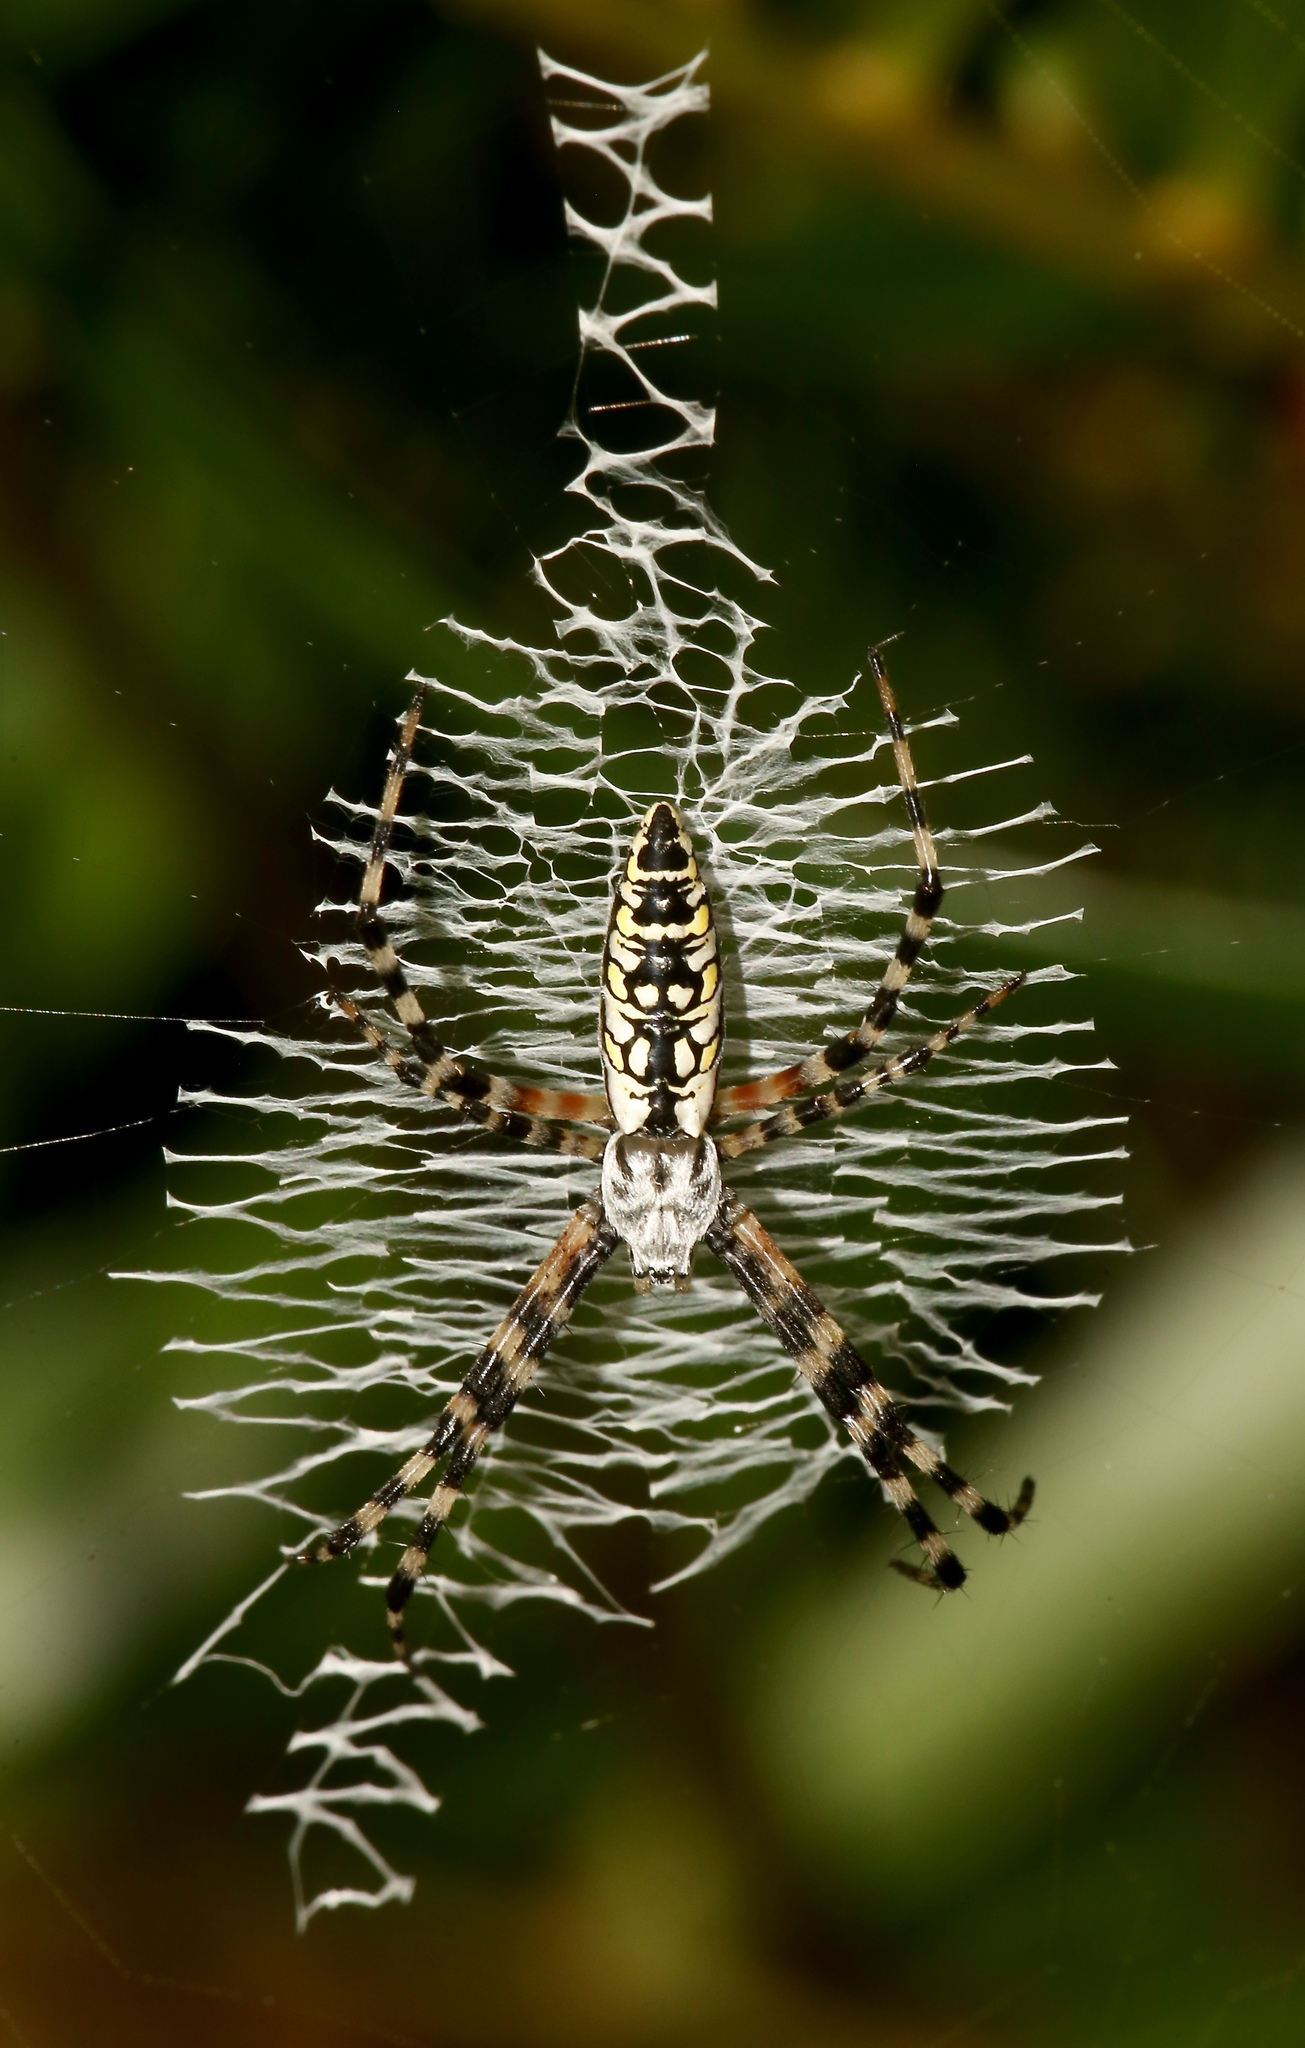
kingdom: Animalia
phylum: Arthropoda
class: Arachnida
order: Araneae
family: Araneidae
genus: Argiope
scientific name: Argiope aurantia
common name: Orb weavers
